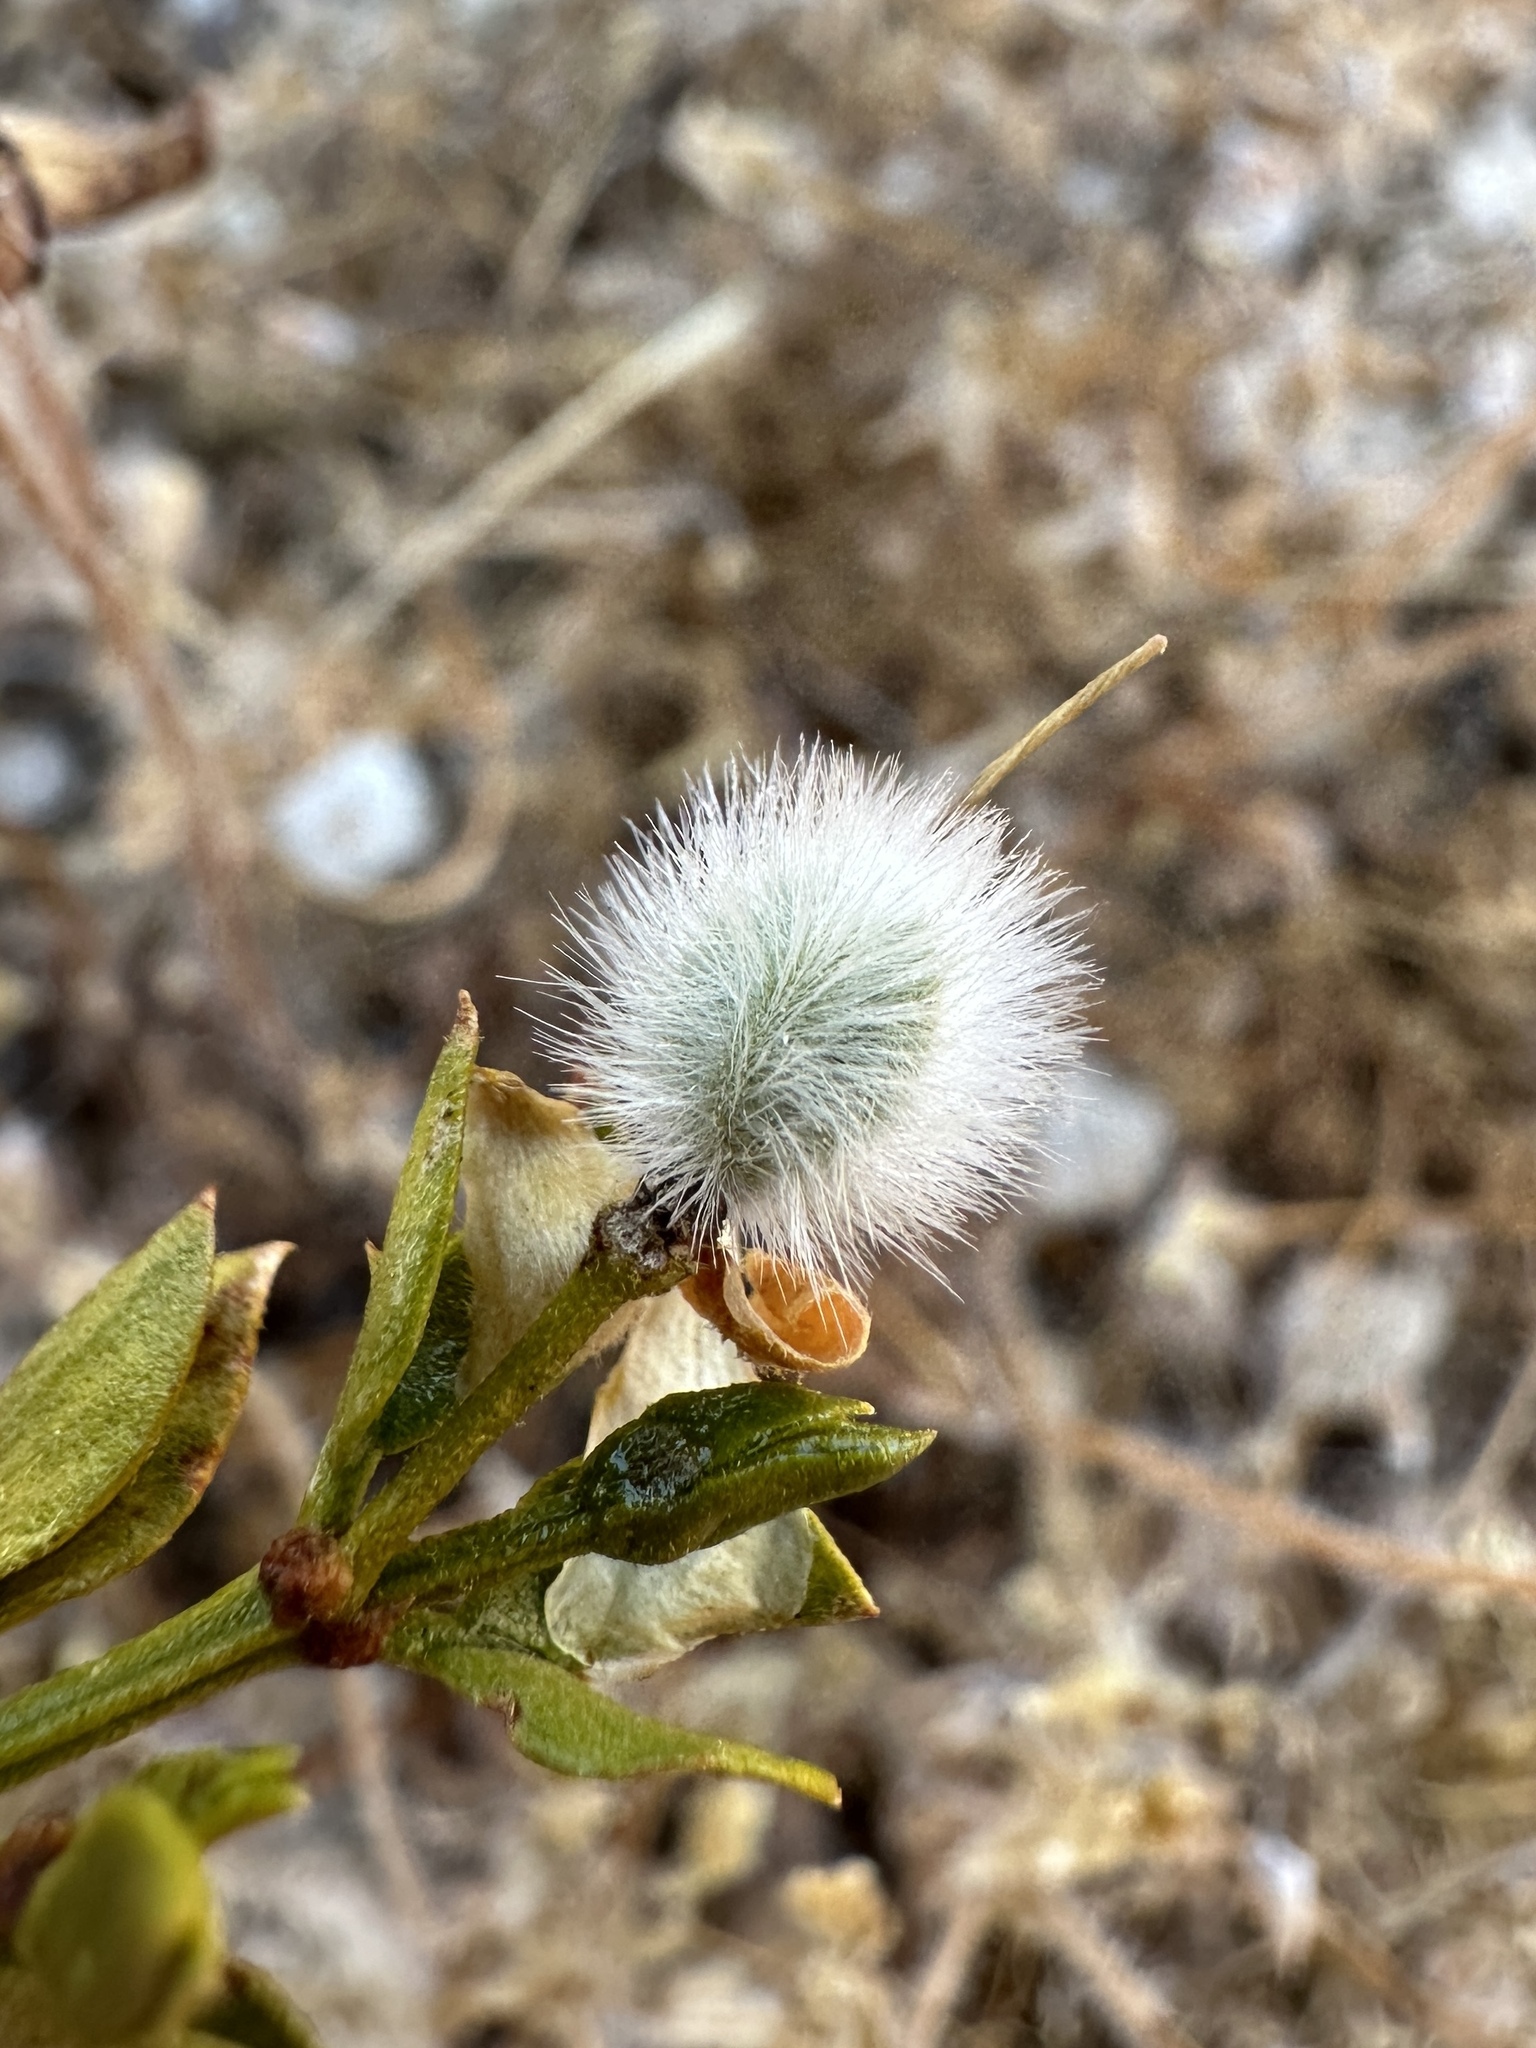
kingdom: Plantae
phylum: Tracheophyta
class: Magnoliopsida
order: Zygophyllales
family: Zygophyllaceae
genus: Larrea
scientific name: Larrea tridentata
